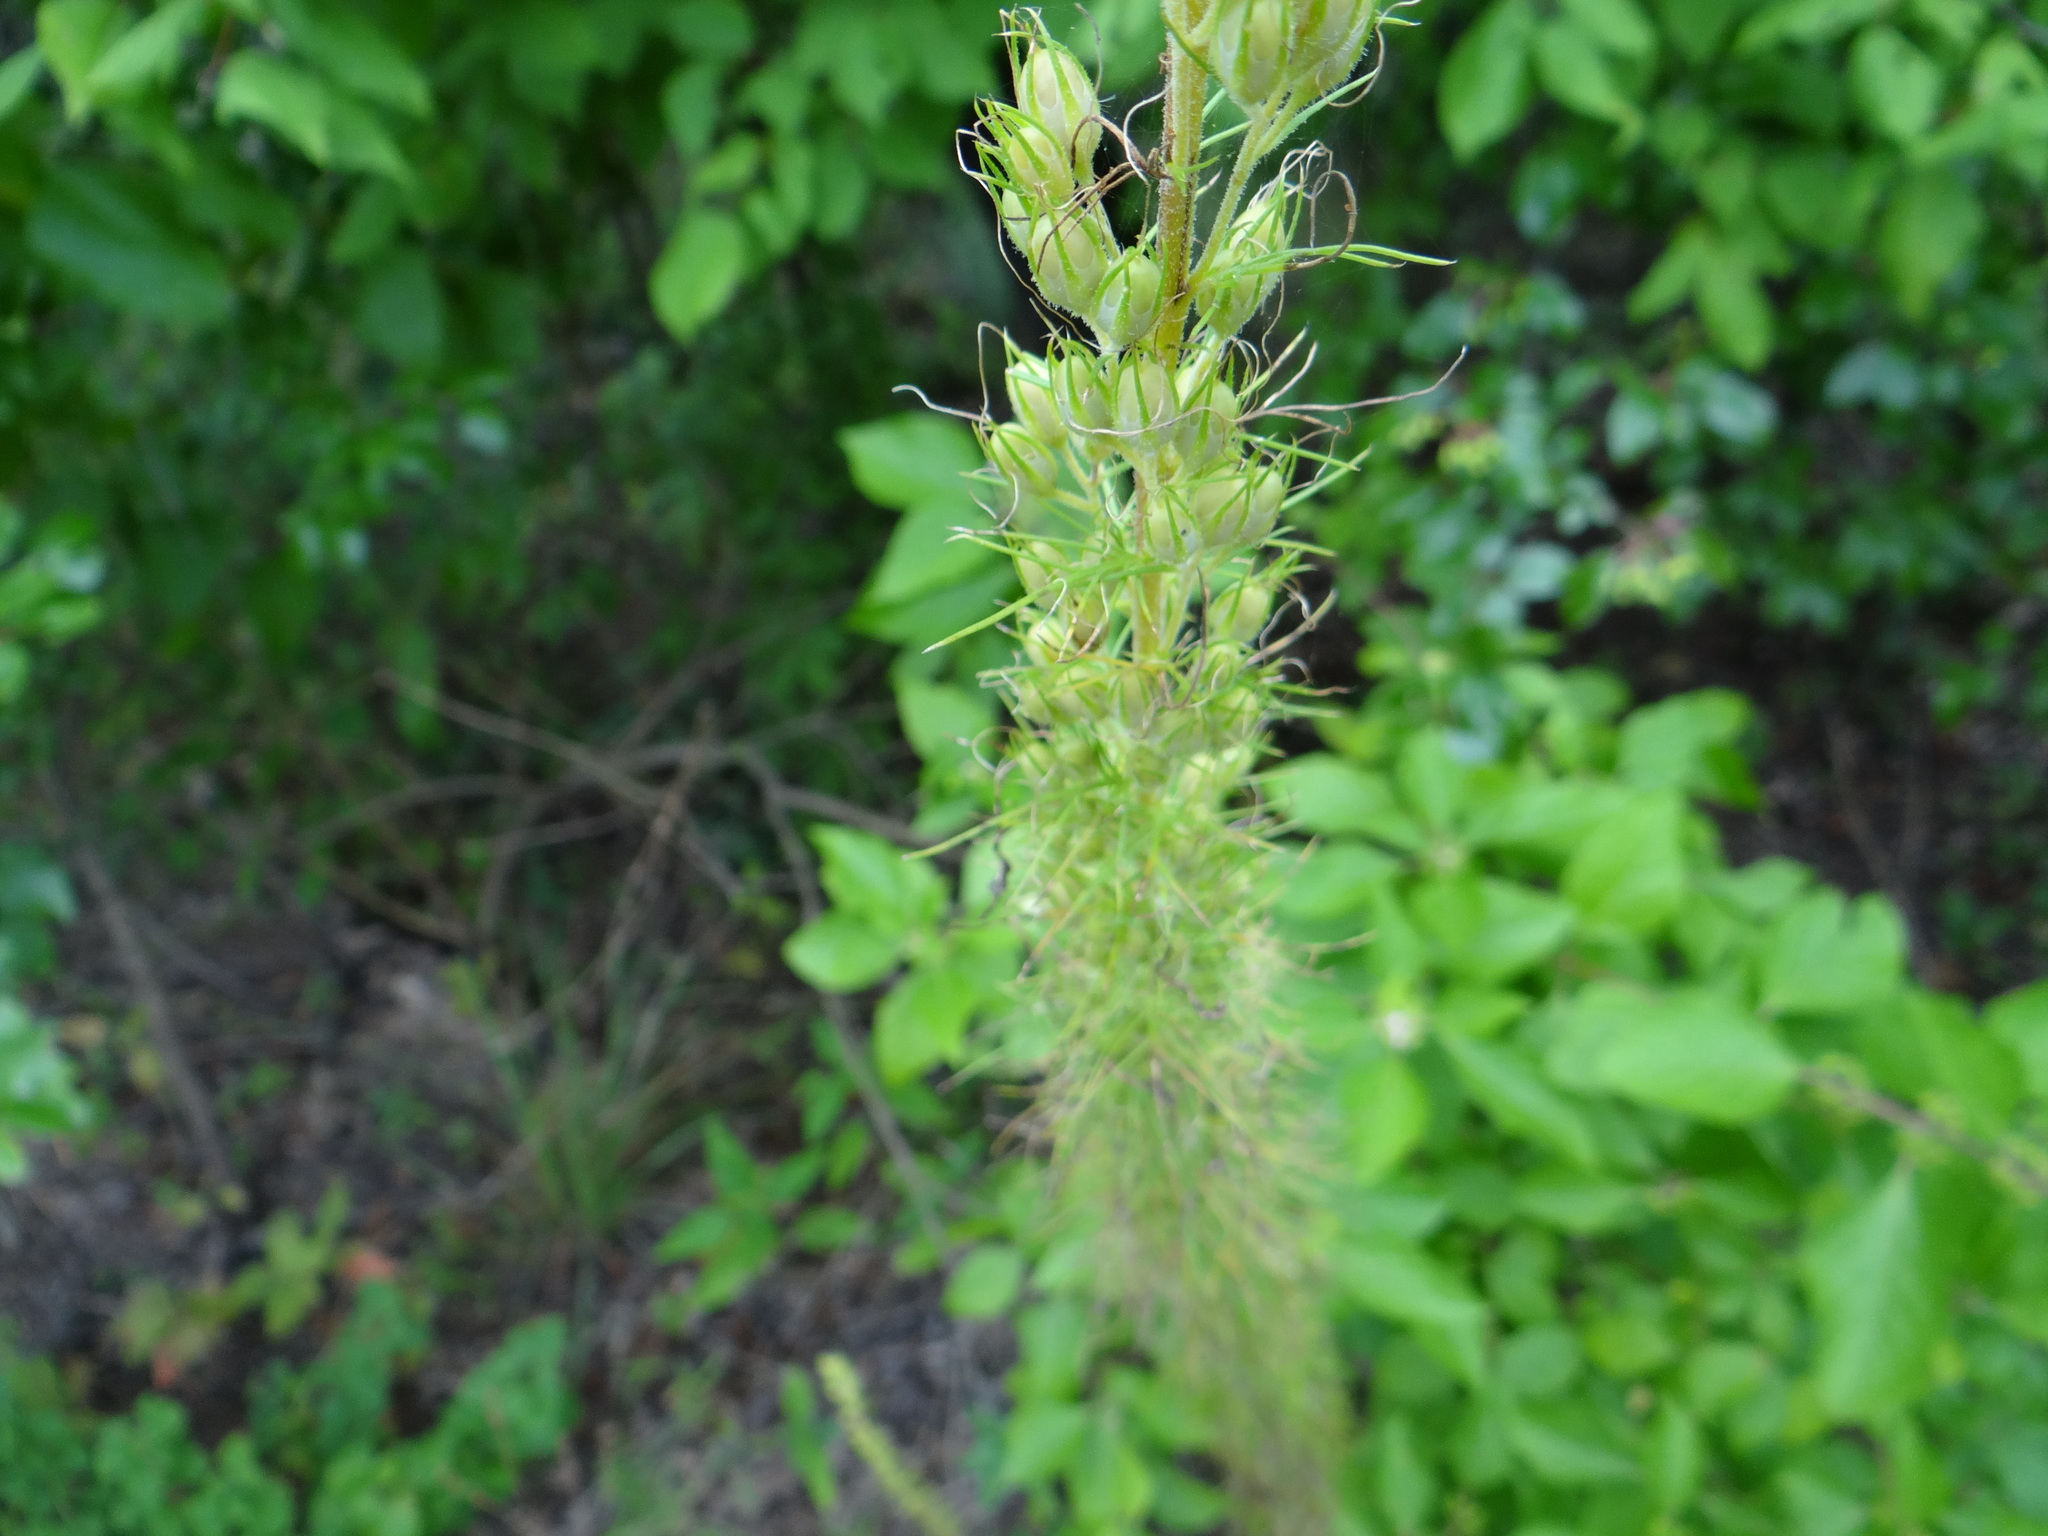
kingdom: Plantae
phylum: Tracheophyta
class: Magnoliopsida
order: Ericales
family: Polemoniaceae
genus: Ipomopsis
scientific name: Ipomopsis rubra
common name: Skyrocket
